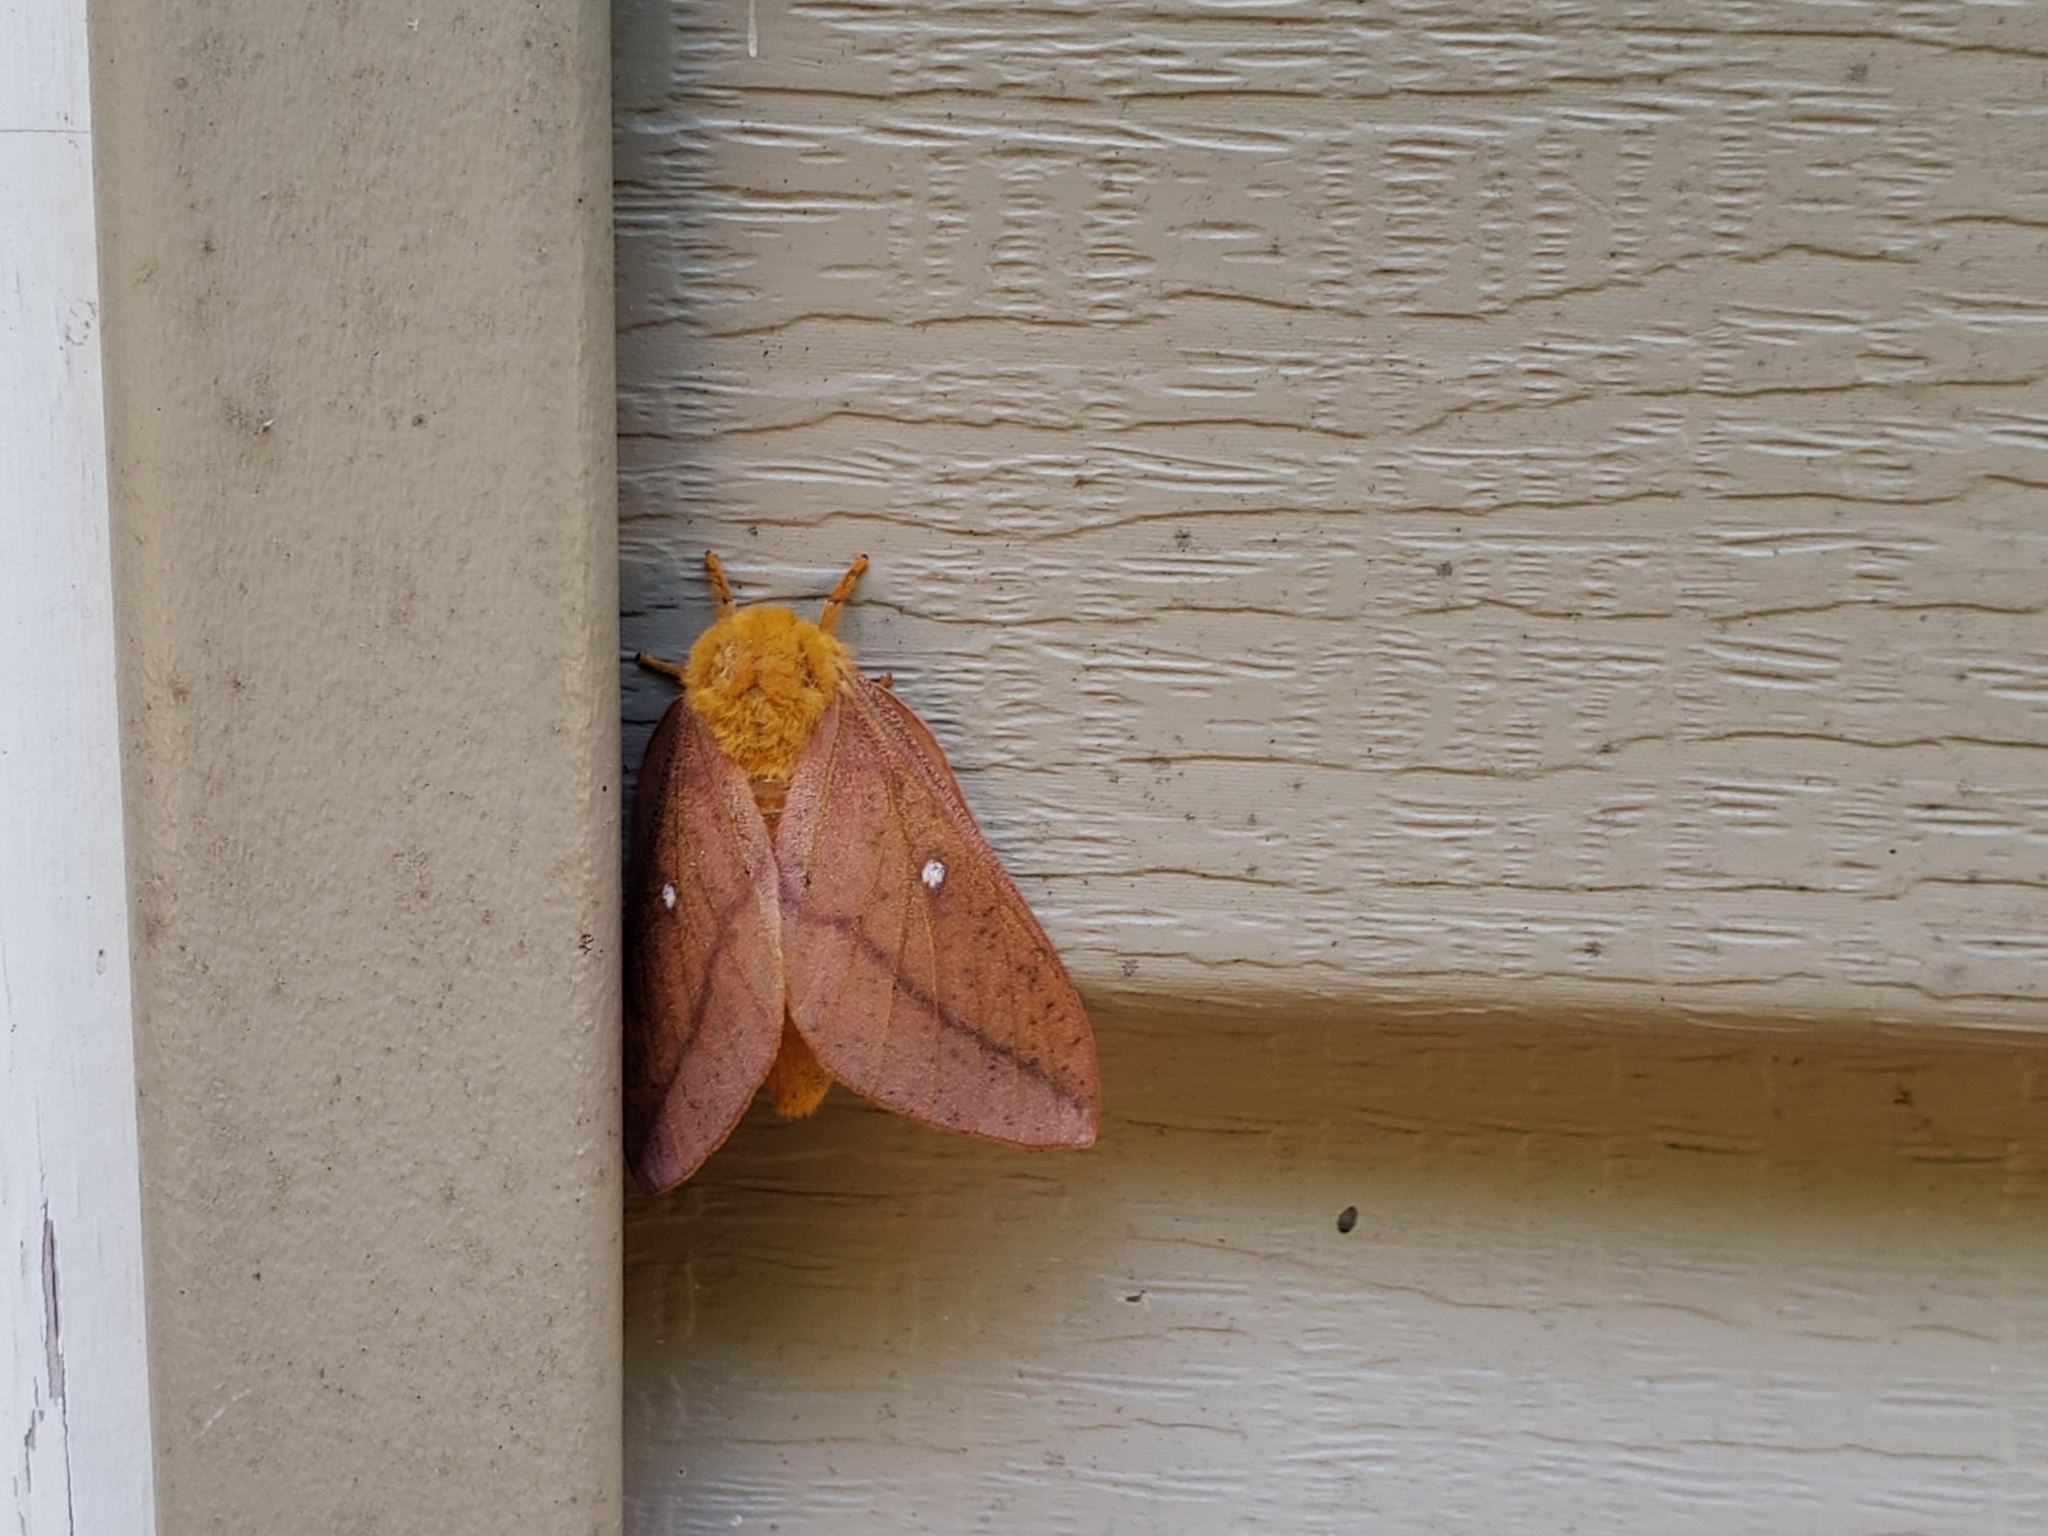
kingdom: Animalia
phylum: Arthropoda
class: Insecta
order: Lepidoptera
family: Saturniidae
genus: Anisota
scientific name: Anisota senatoria
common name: Orange-striped oakworm moth
